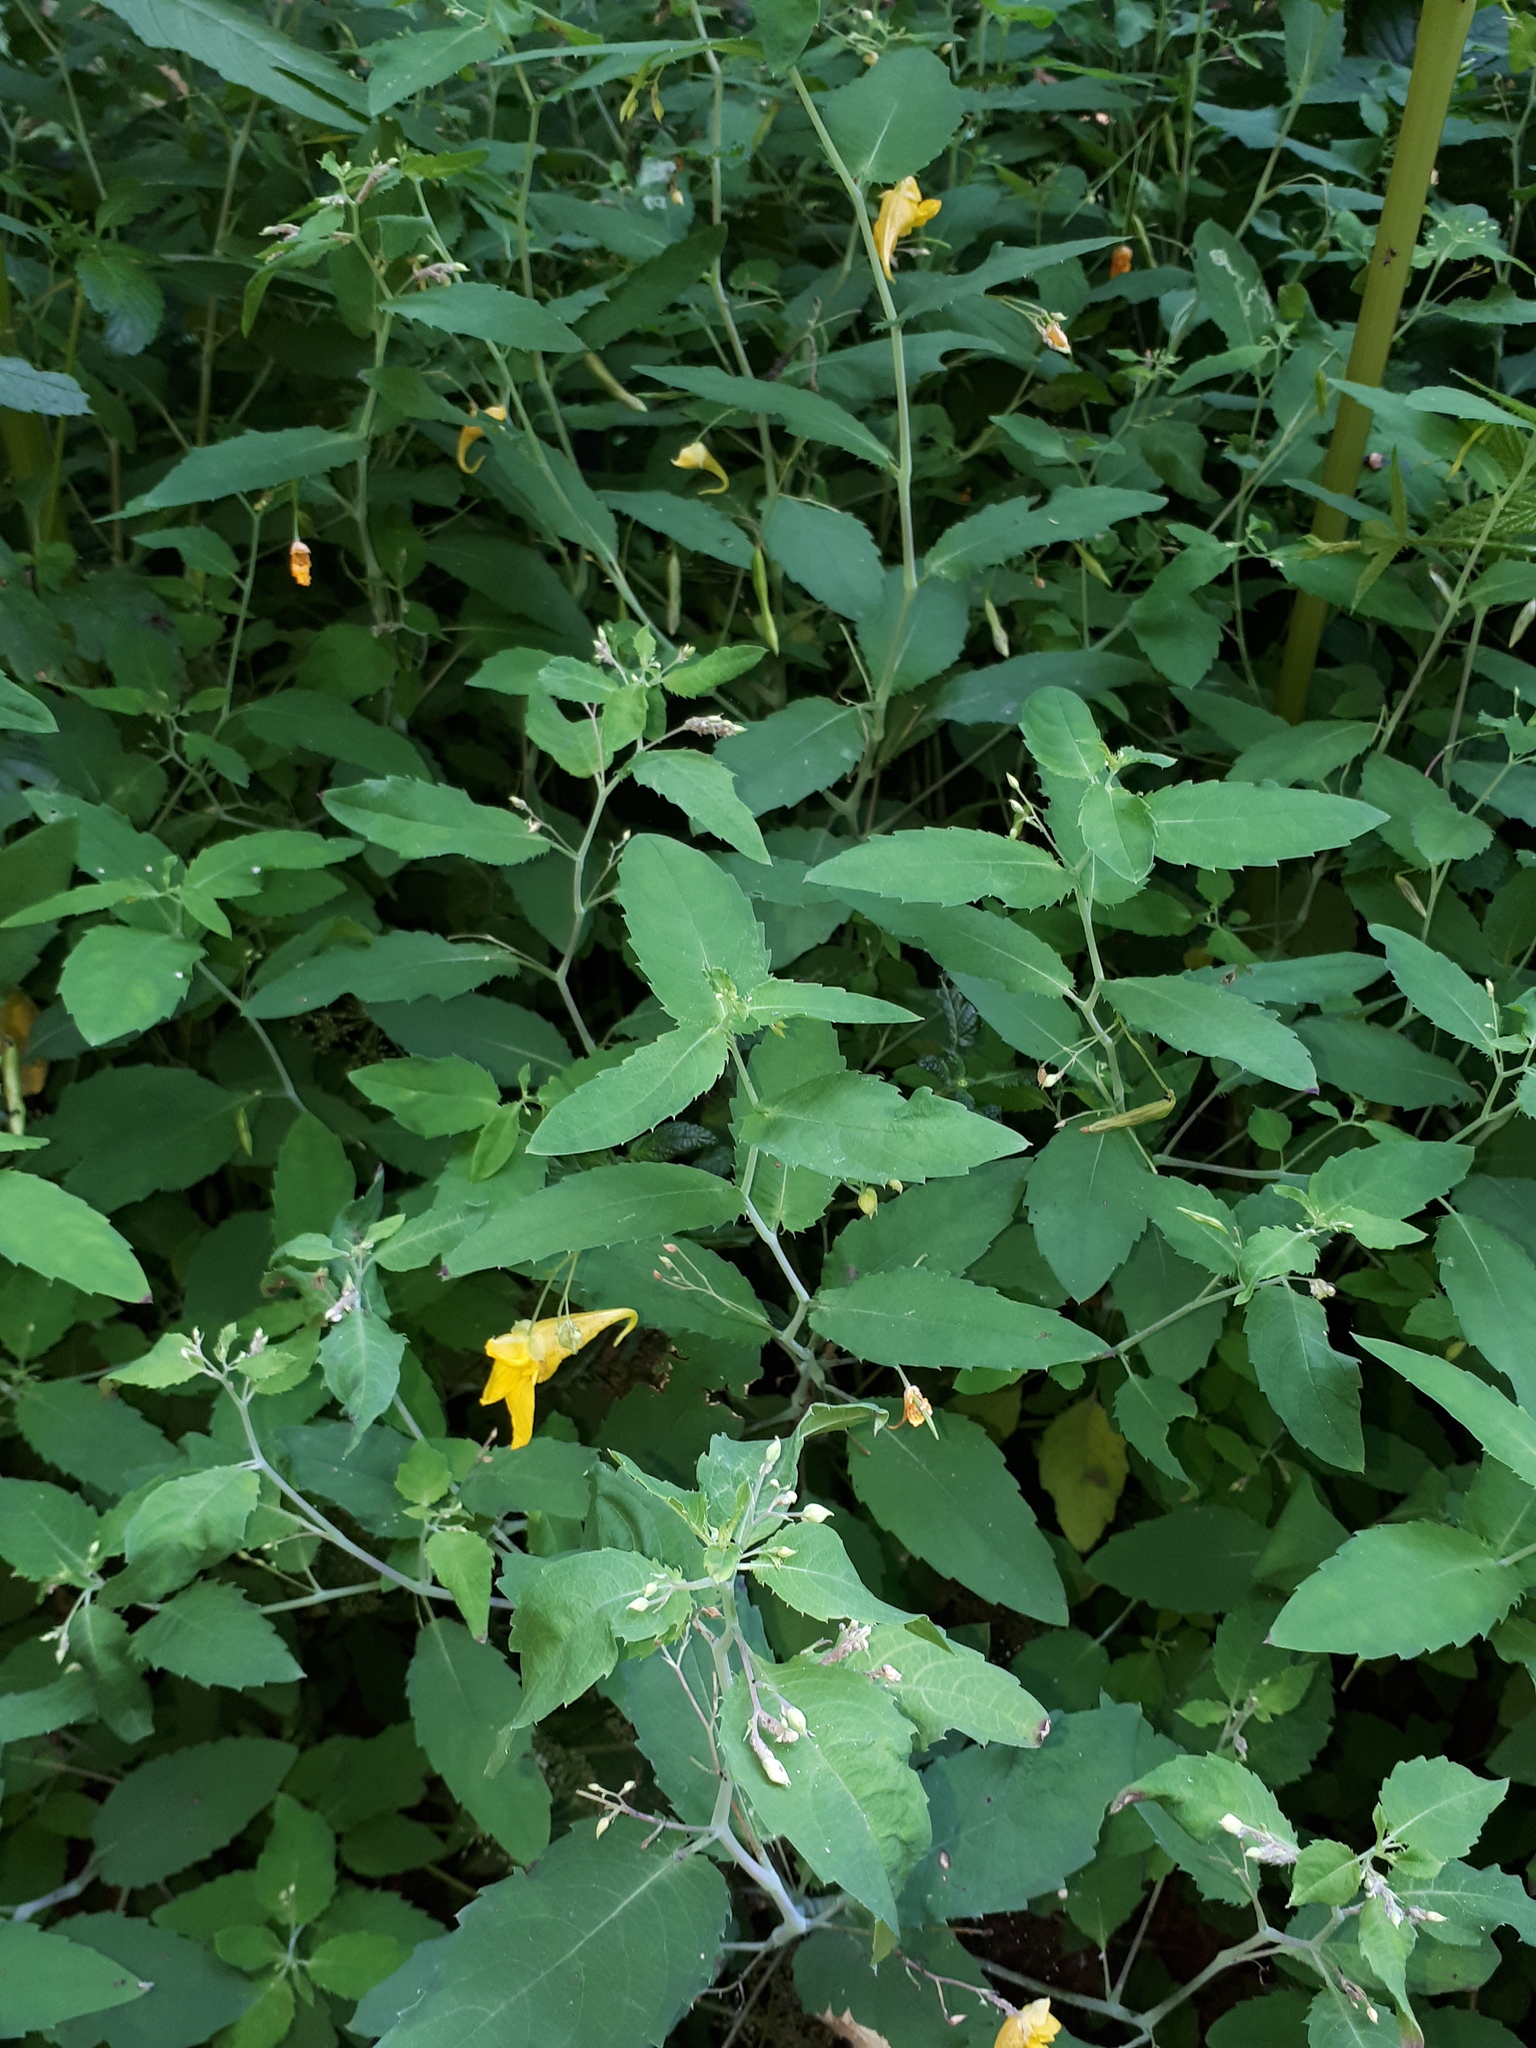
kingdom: Plantae
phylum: Tracheophyta
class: Magnoliopsida
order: Ericales
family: Balsaminaceae
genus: Impatiens
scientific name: Impatiens noli-tangere
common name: Touch-me-not balsam
